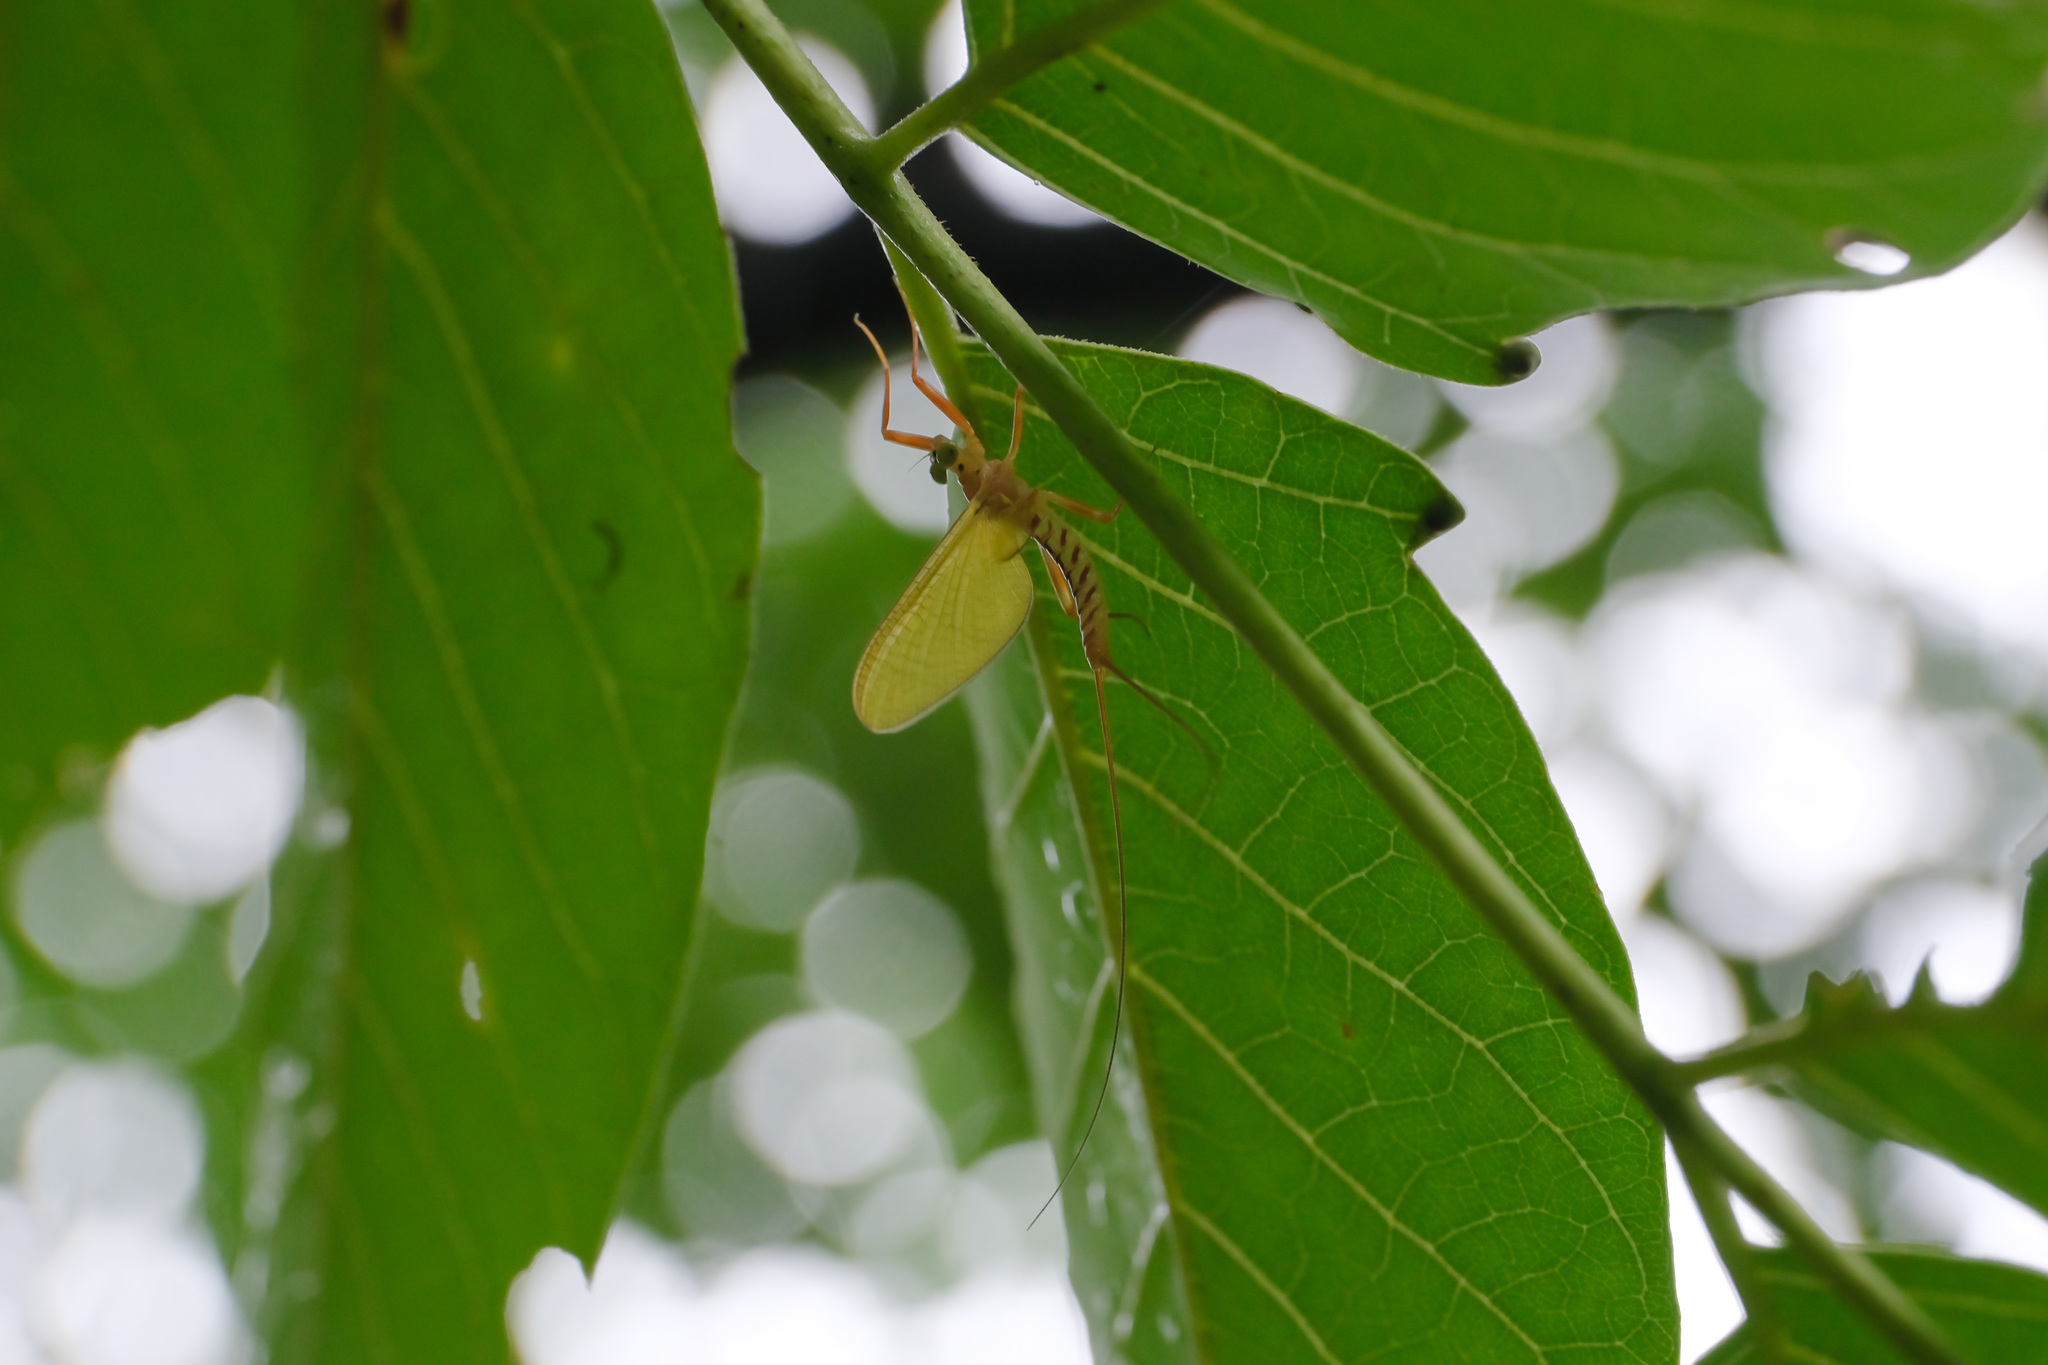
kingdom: Animalia
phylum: Arthropoda
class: Insecta
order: Ephemeroptera
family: Heptageniidae
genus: Paegniodes
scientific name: Paegniodes cupulatus
